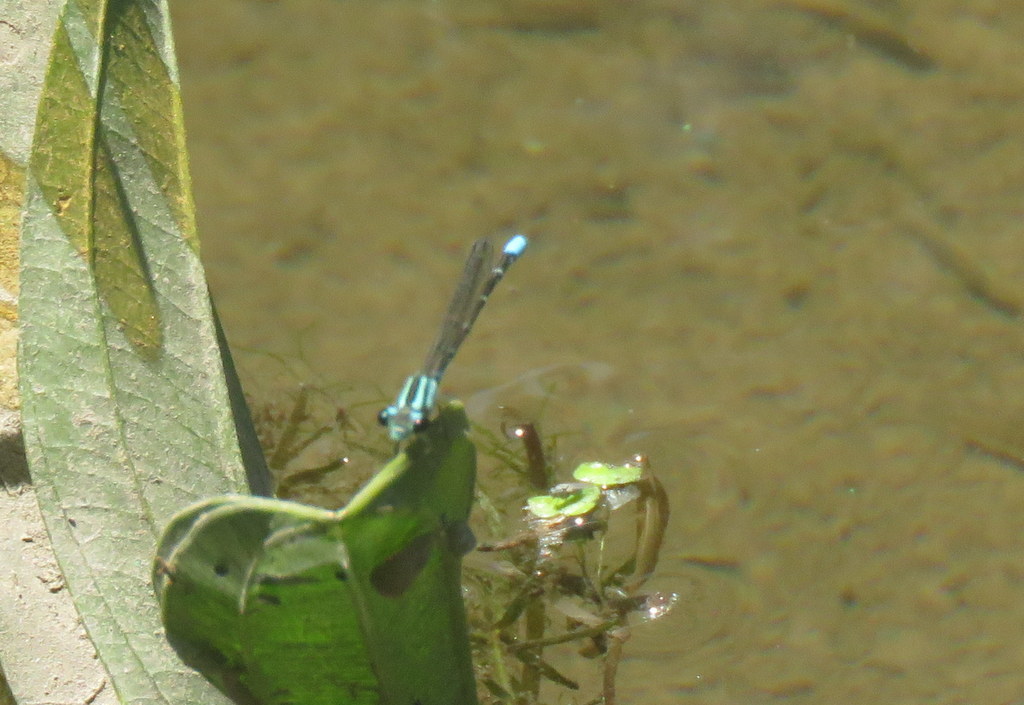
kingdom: Animalia
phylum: Arthropoda
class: Insecta
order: Odonata
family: Coenagrionidae
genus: Acanthagrion
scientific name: Acanthagrion lancea
